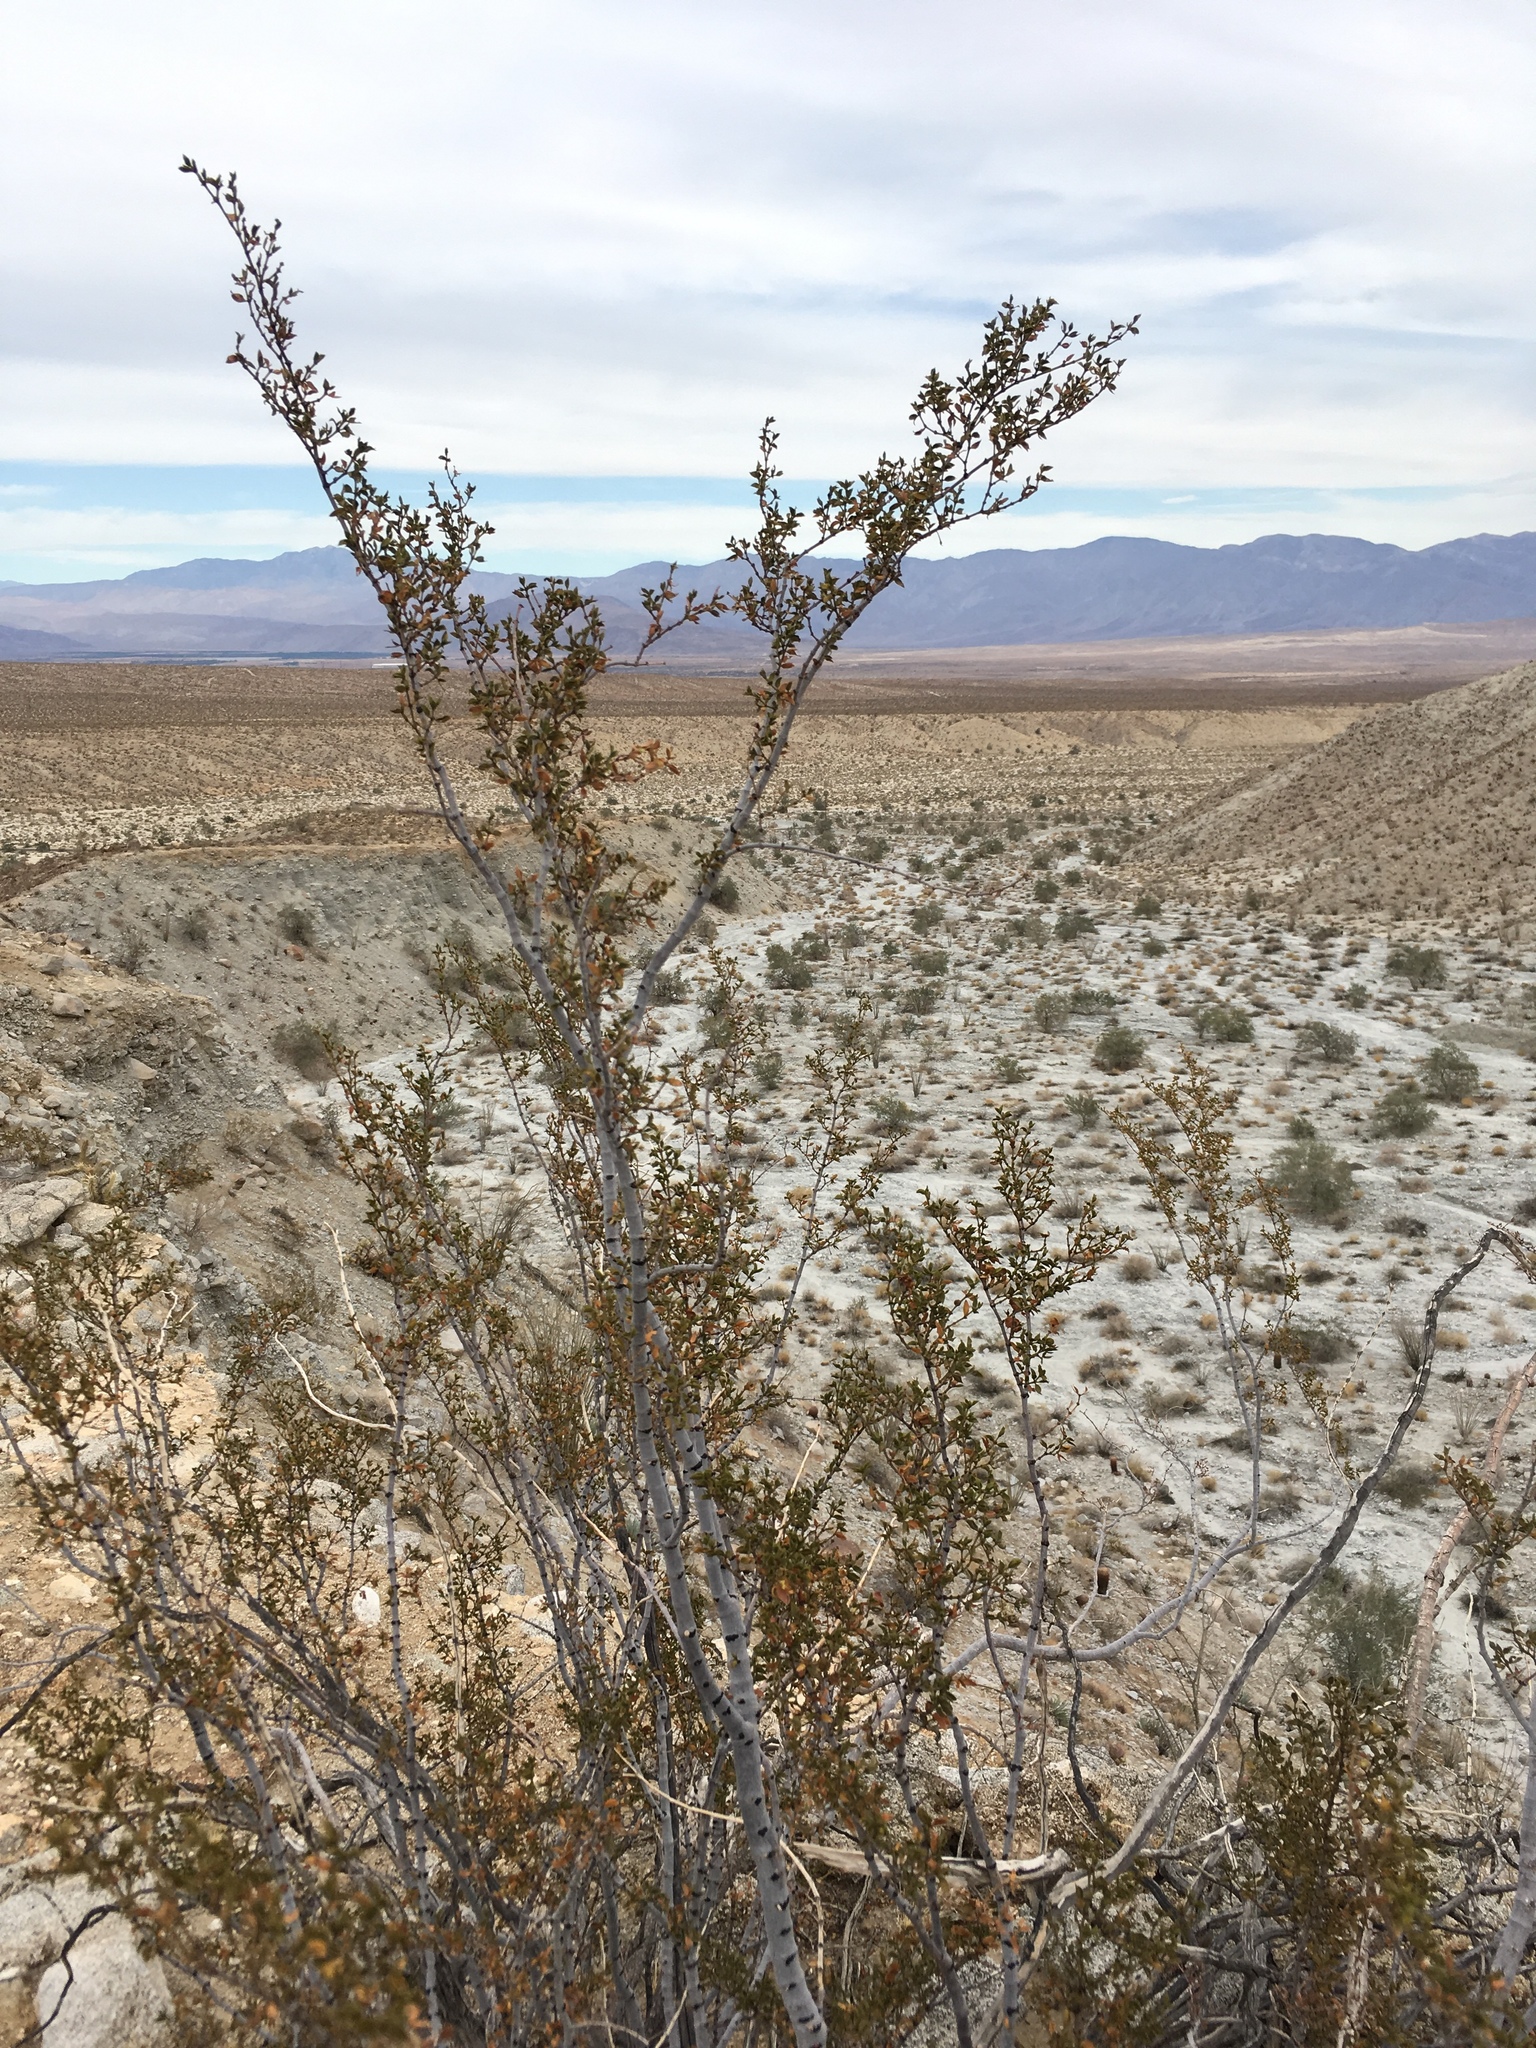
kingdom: Plantae
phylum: Tracheophyta
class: Magnoliopsida
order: Zygophyllales
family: Zygophyllaceae
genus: Larrea
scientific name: Larrea tridentata
